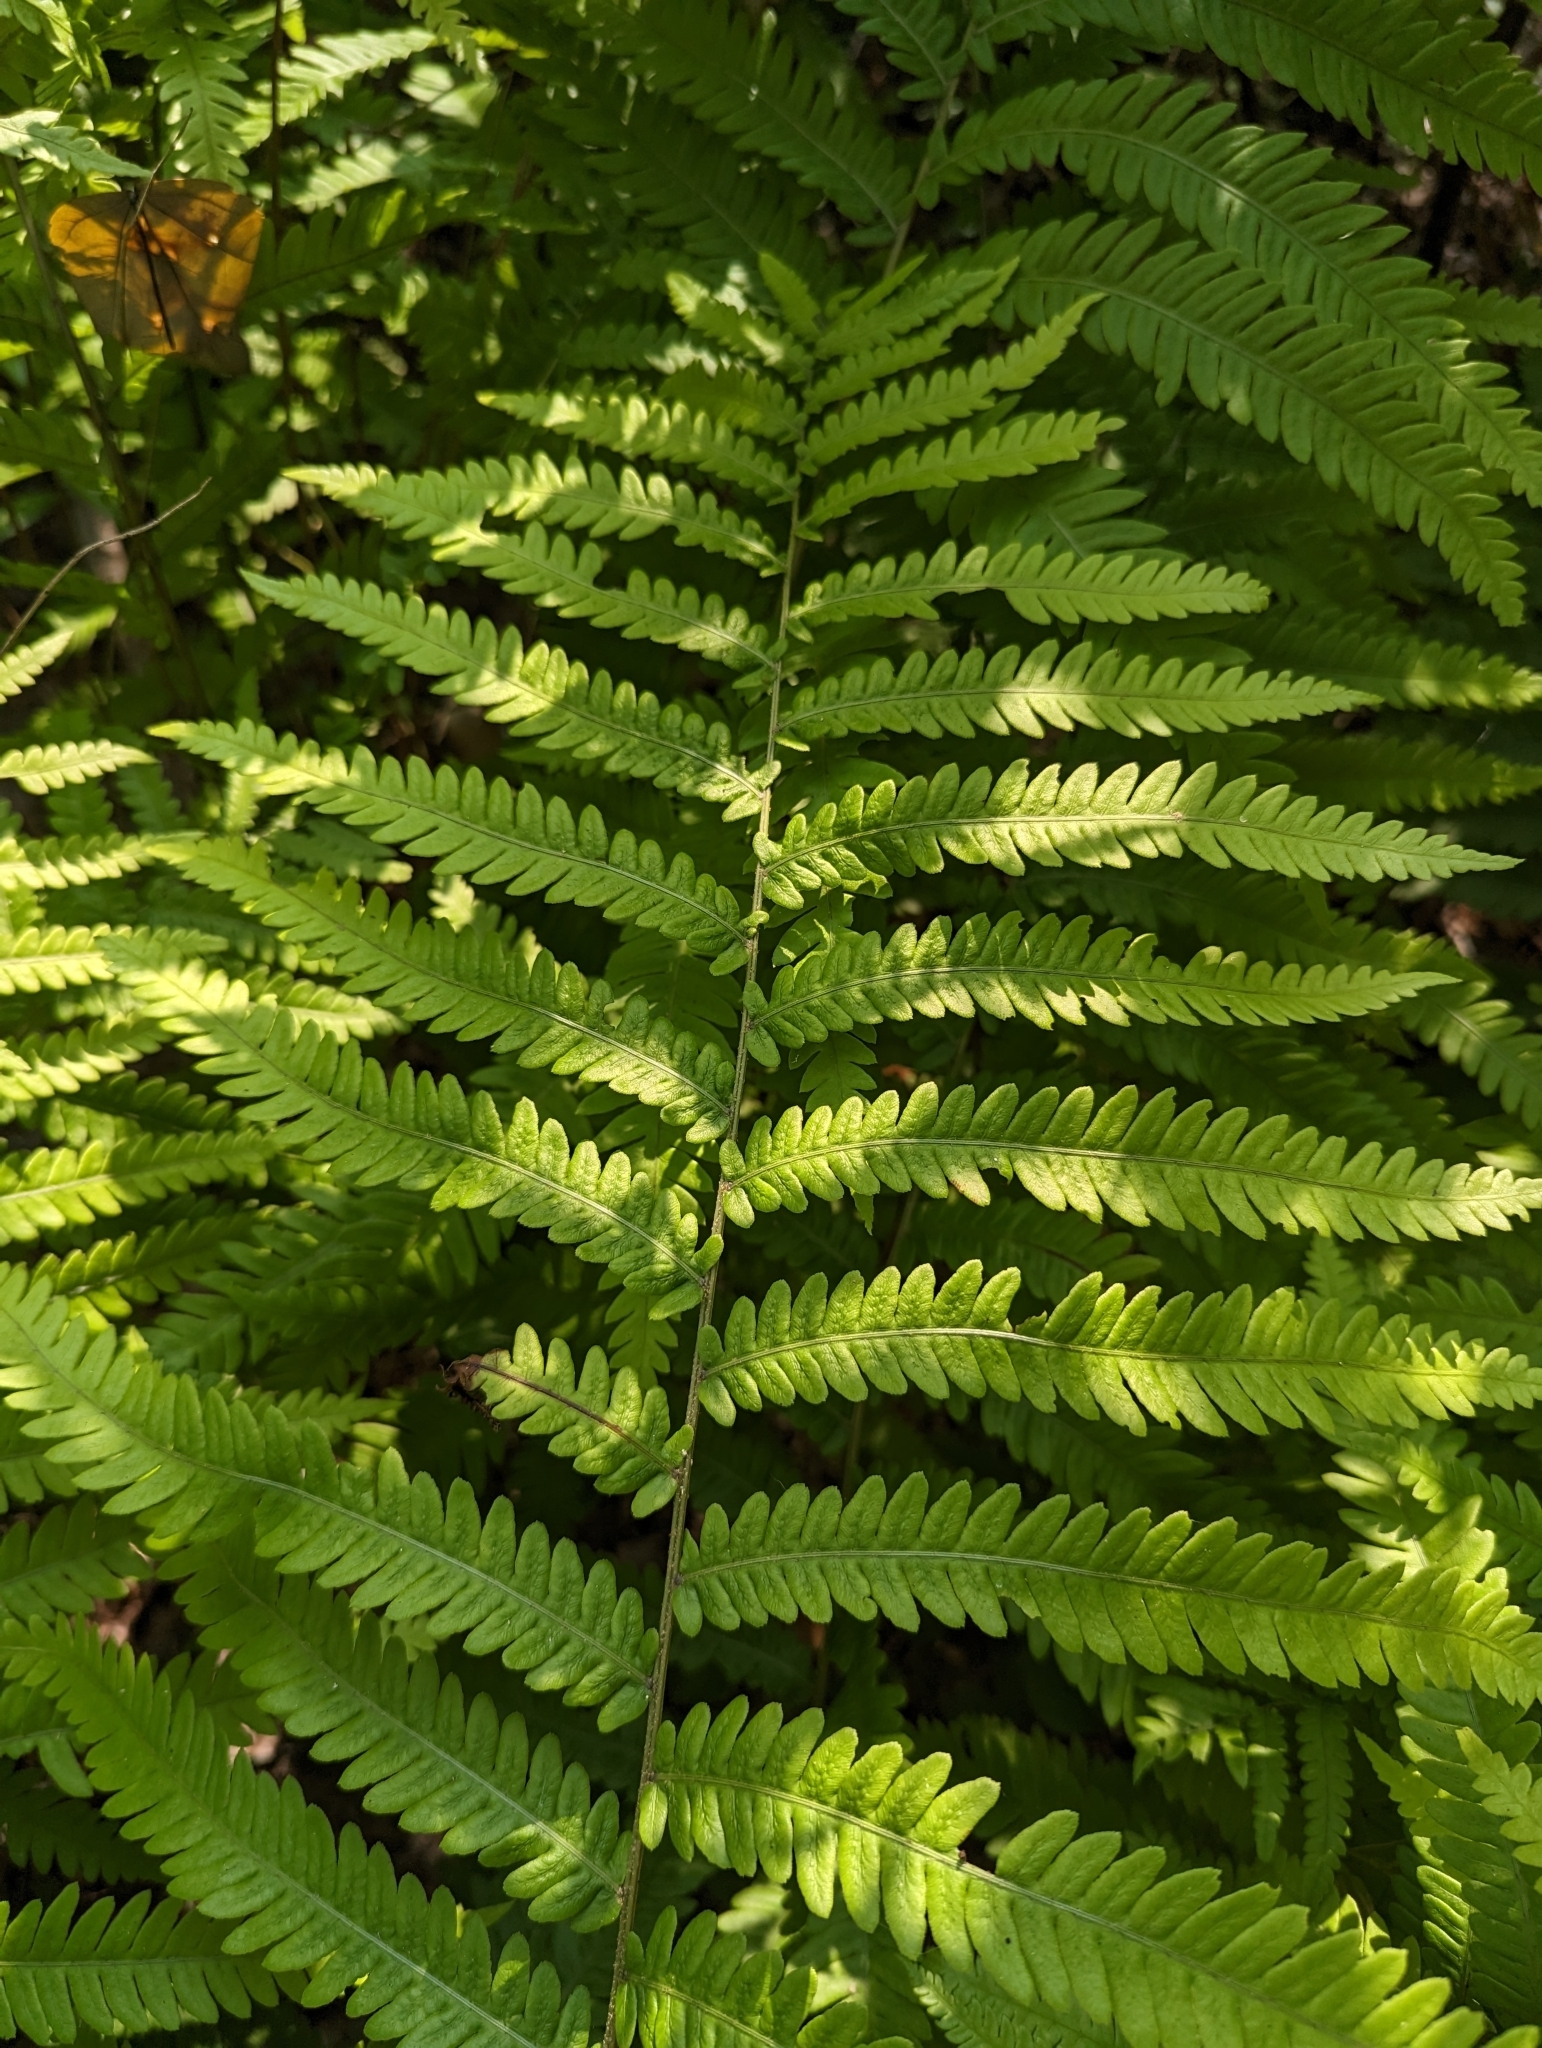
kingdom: Plantae
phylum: Tracheophyta
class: Polypodiopsida
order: Polypodiales
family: Blechnaceae
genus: Anchistea
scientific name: Anchistea virginica
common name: Virginia chain fern
